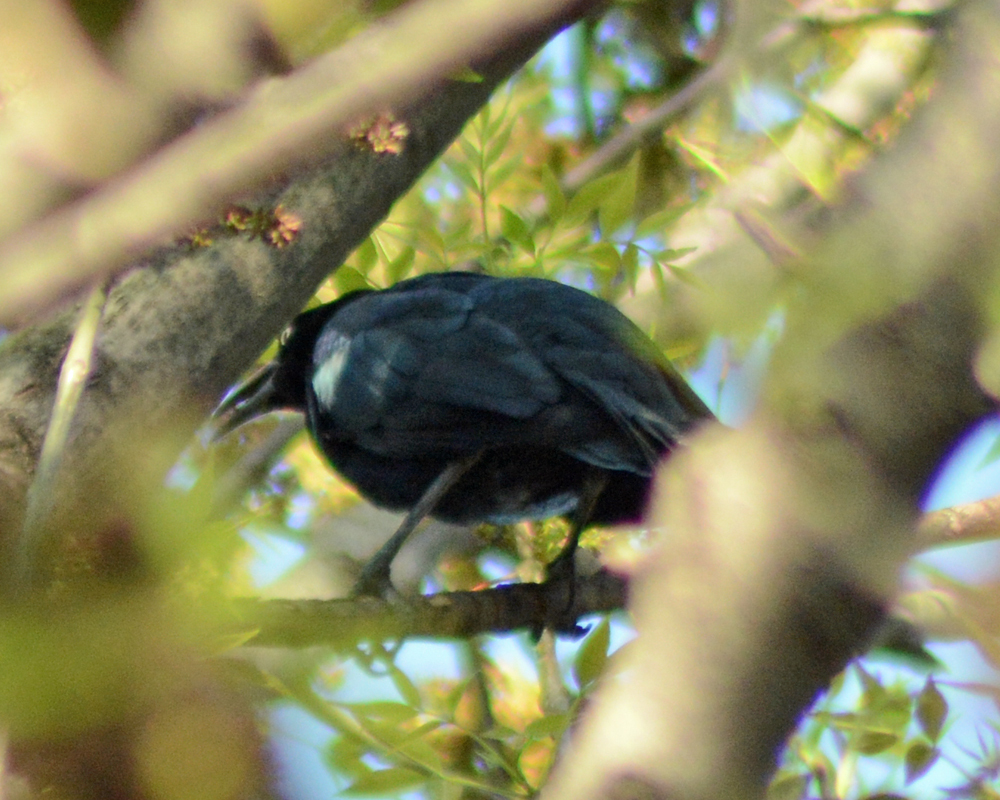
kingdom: Animalia
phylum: Chordata
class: Aves
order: Passeriformes
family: Icteridae
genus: Quiscalus
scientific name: Quiscalus mexicanus
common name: Great-tailed grackle
